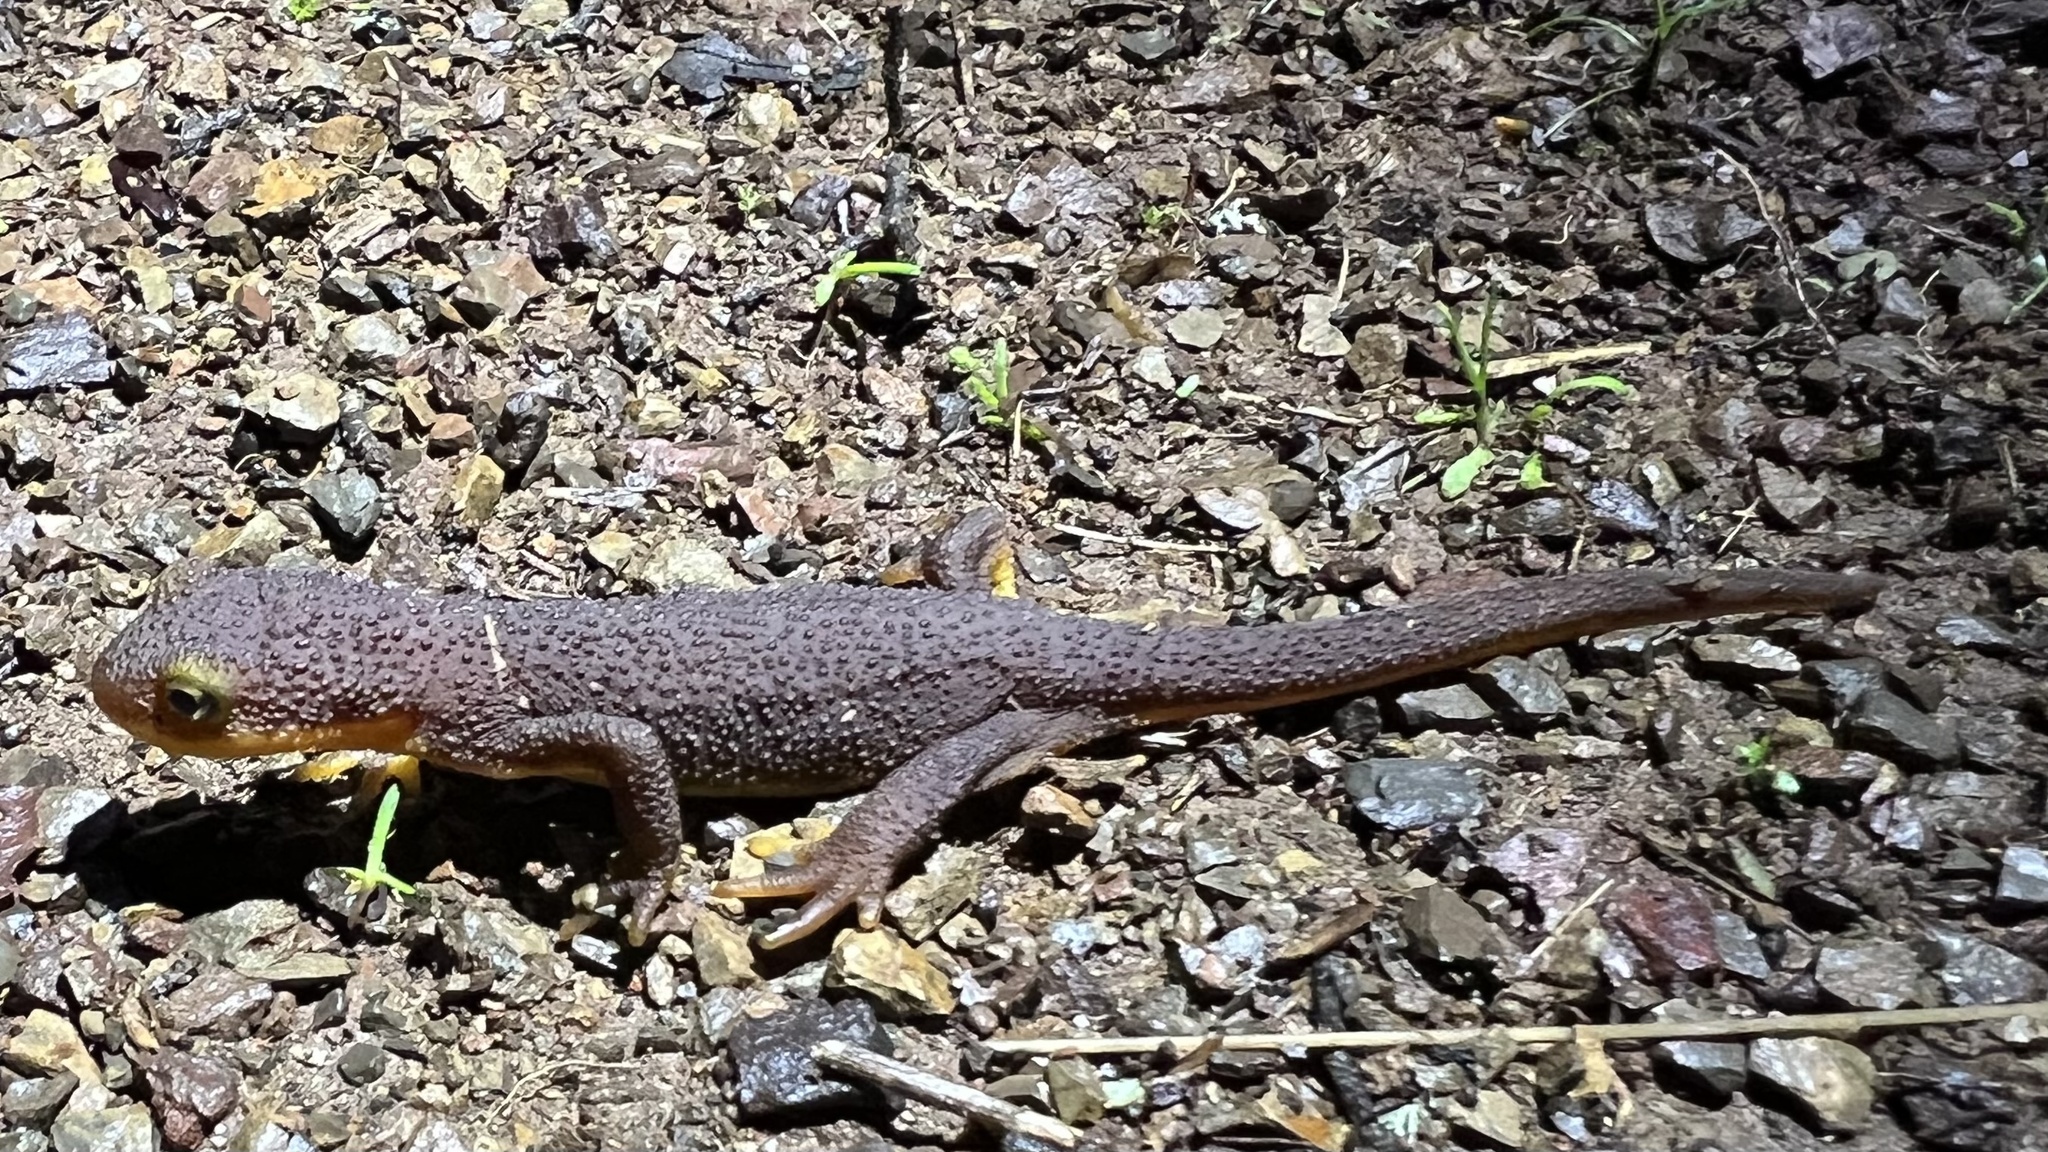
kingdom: Animalia
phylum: Chordata
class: Amphibia
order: Caudata
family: Salamandridae
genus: Taricha
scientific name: Taricha torosa
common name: California newt
